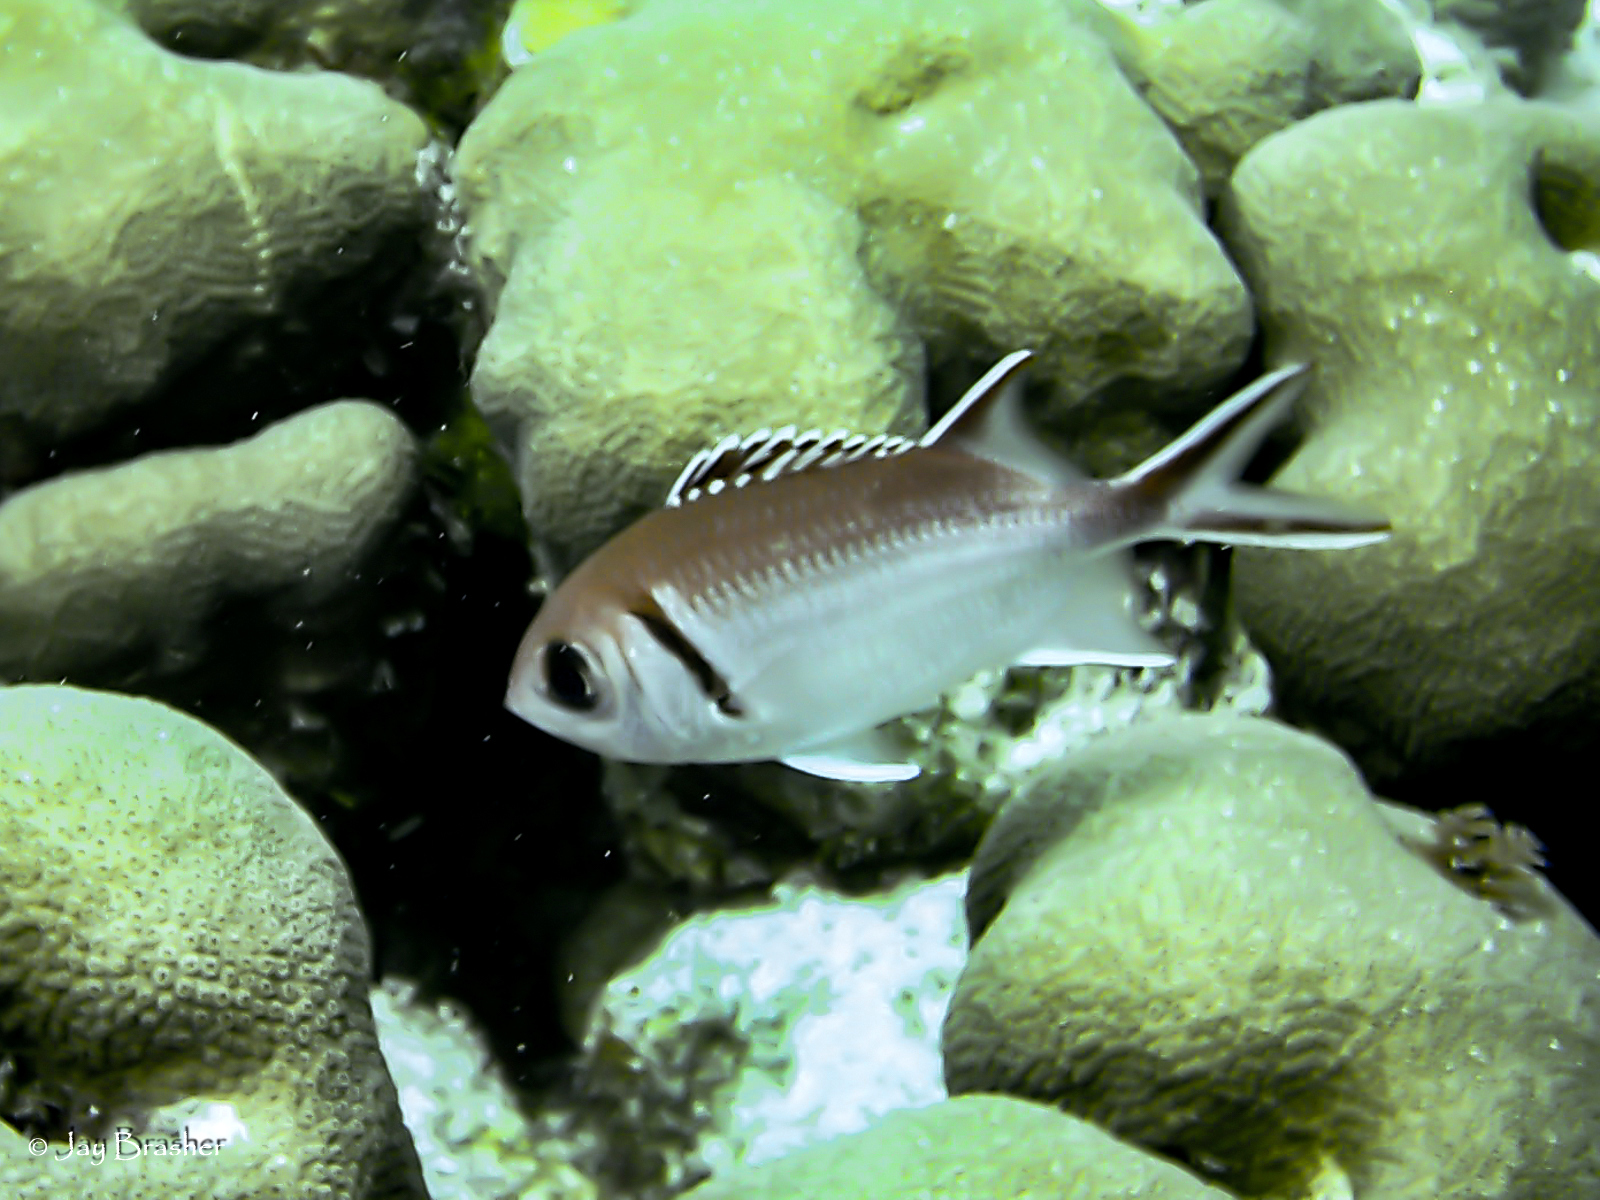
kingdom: Animalia
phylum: Chordata
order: Beryciformes
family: Holocentridae
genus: Myripristis
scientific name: Myripristis jacobus
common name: Blackbar soldierfish
